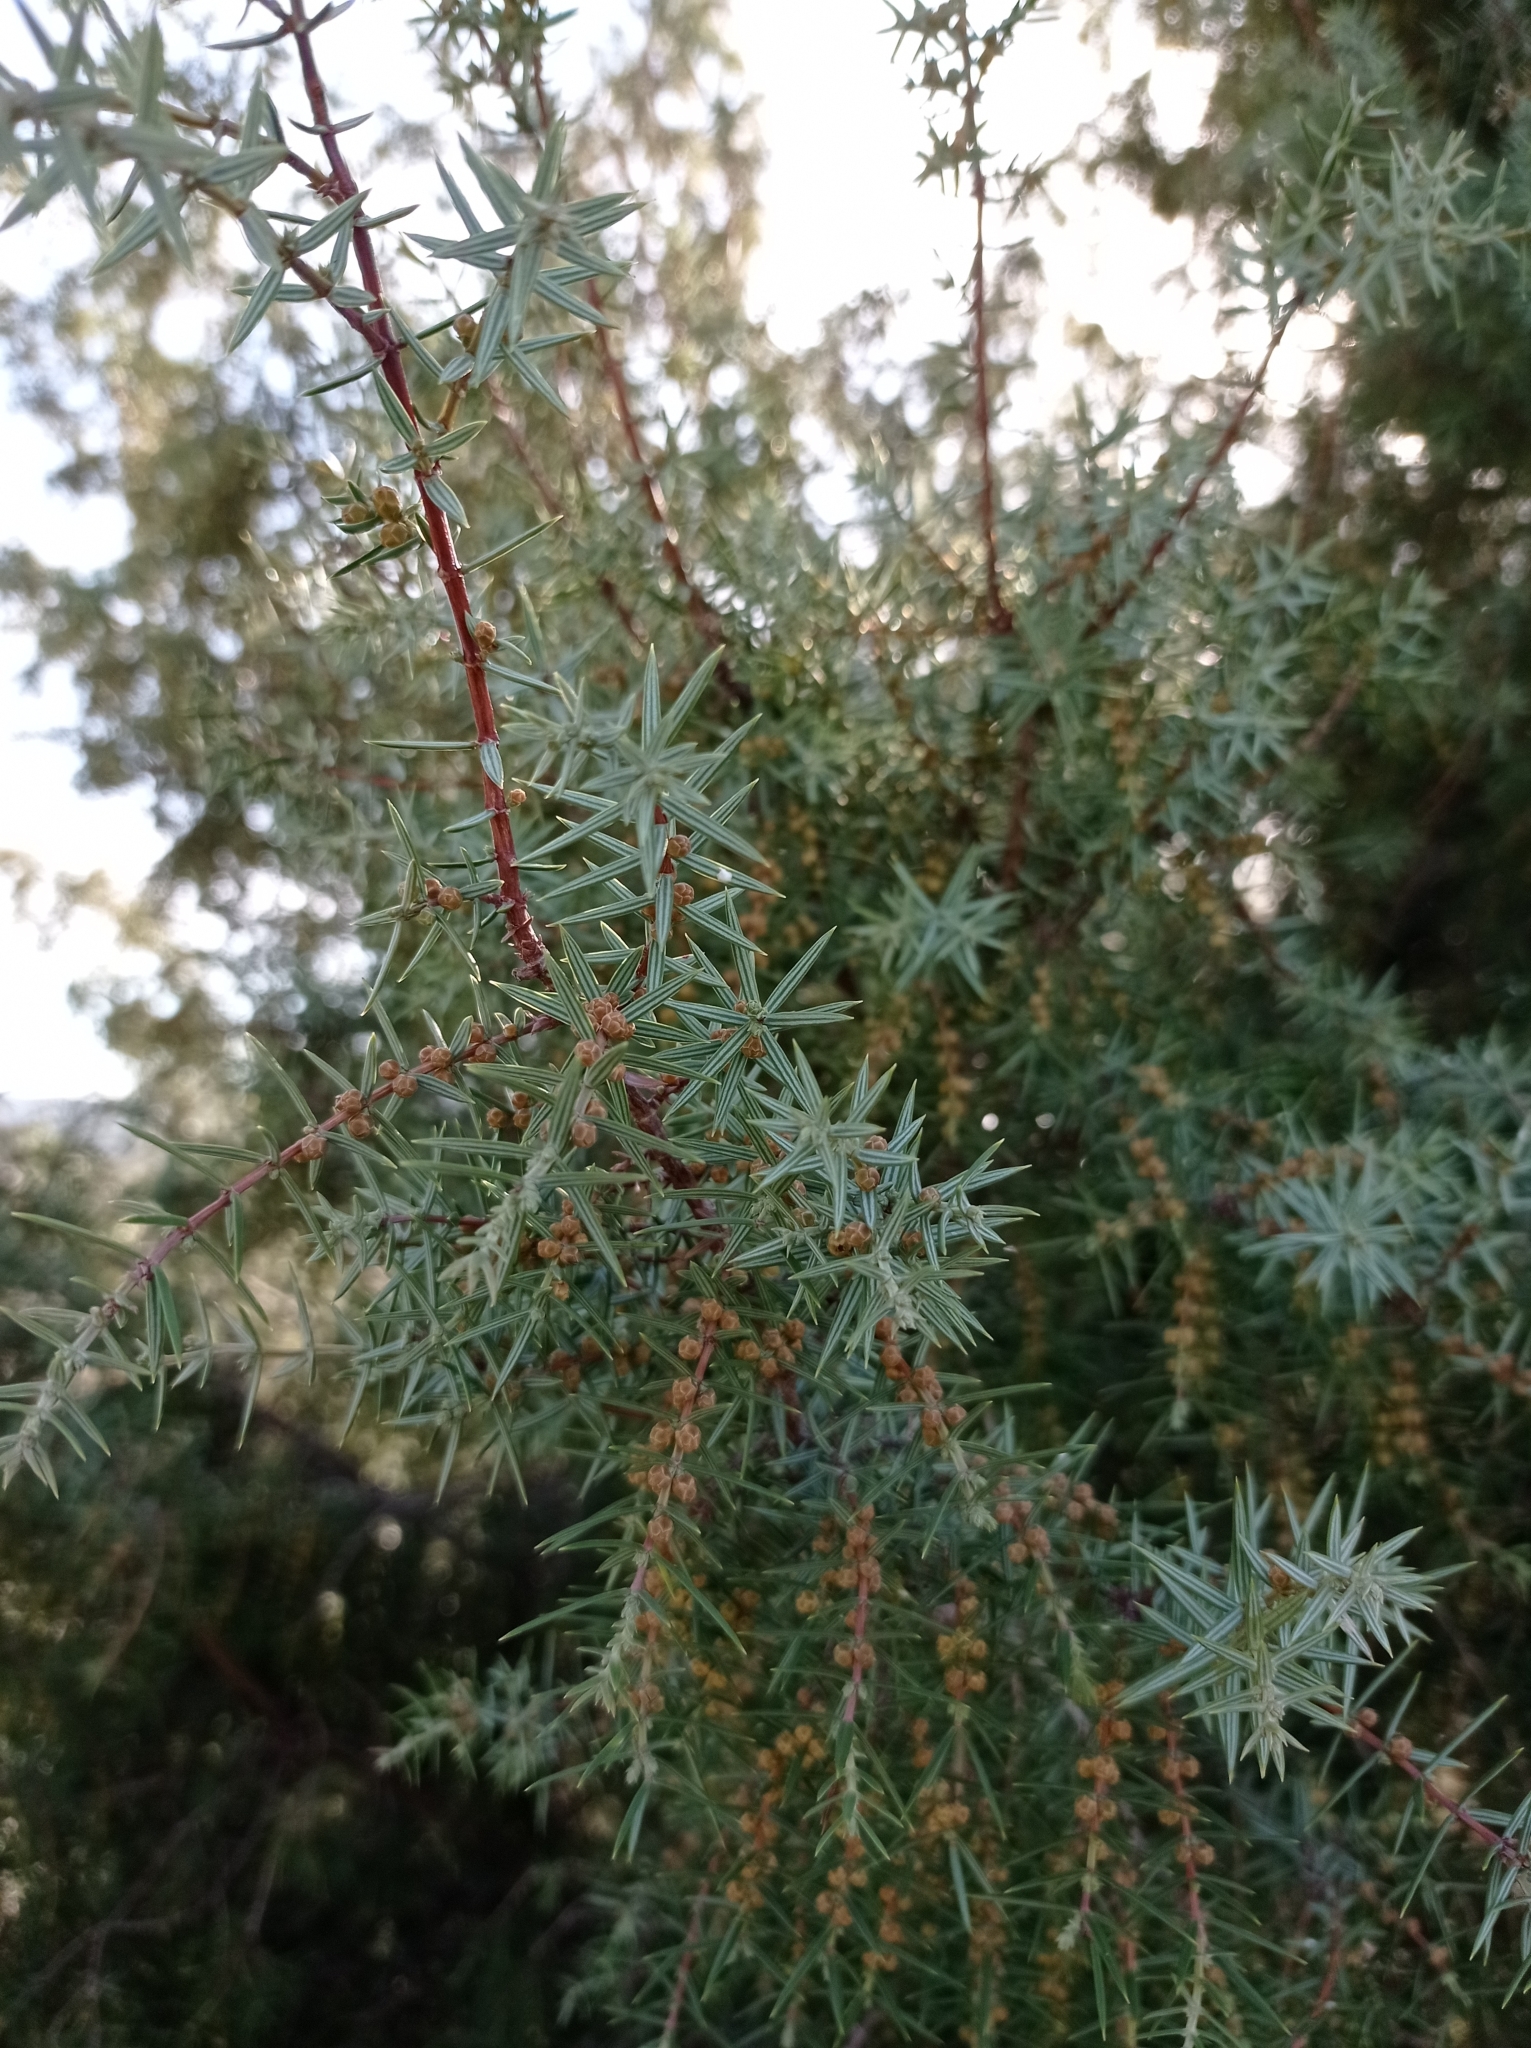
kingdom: Plantae
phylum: Tracheophyta
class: Pinopsida
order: Pinales
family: Cupressaceae
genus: Juniperus
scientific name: Juniperus oxycedrus
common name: Prickly juniper
